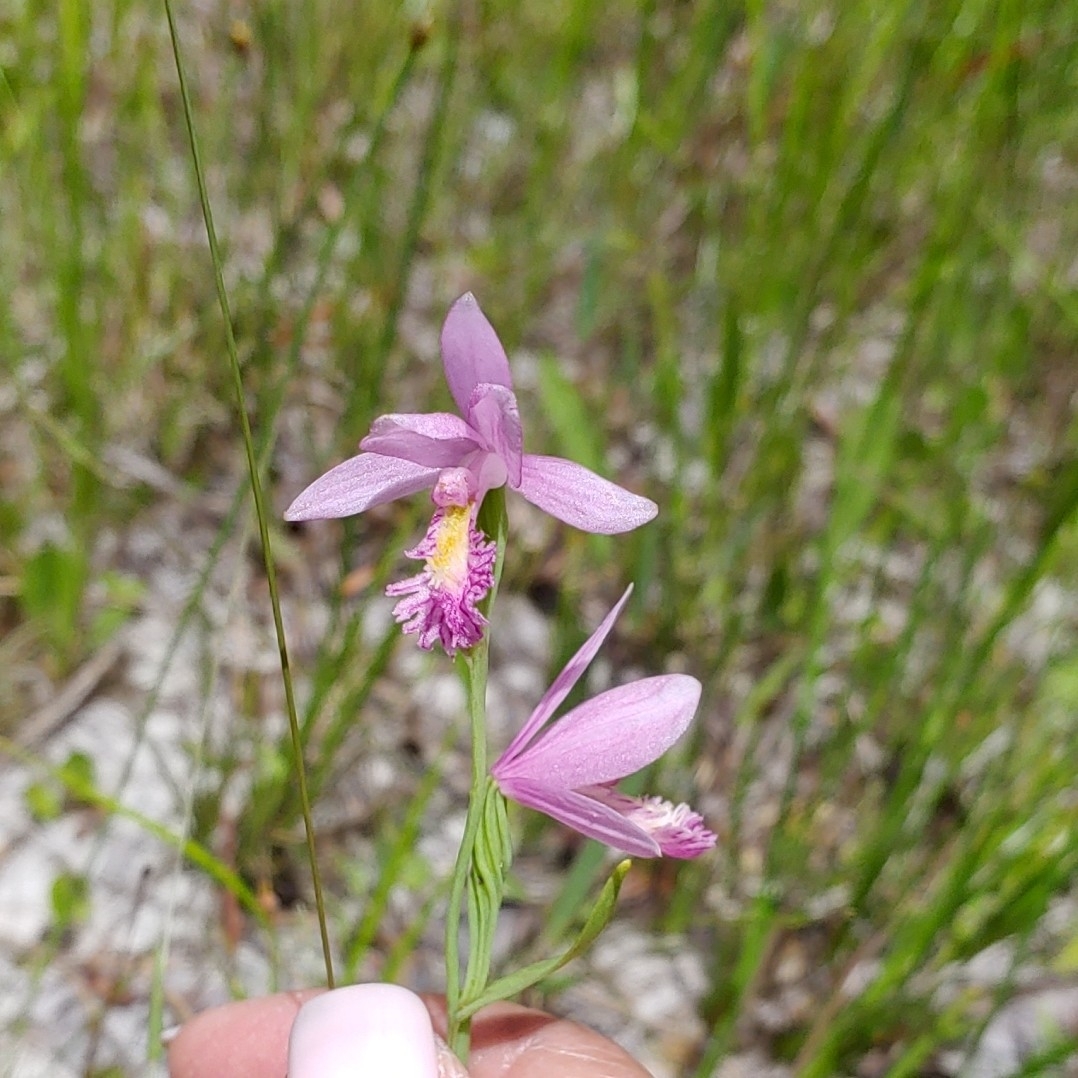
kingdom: Plantae
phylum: Tracheophyta
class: Liliopsida
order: Asparagales
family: Orchidaceae
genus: Pogonia
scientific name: Pogonia ophioglossoides
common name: Rose pogonia
